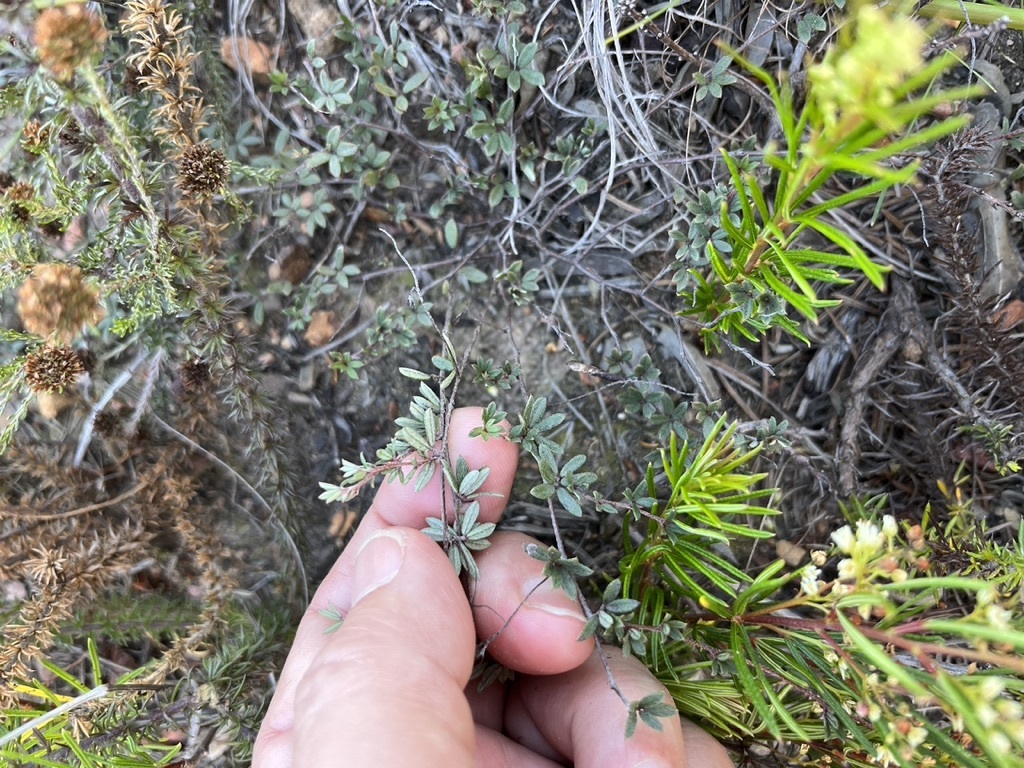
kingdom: Plantae
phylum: Tracheophyta
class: Magnoliopsida
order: Fabales
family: Fabaceae
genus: Indigofera
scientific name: Indigofera angustifolia
